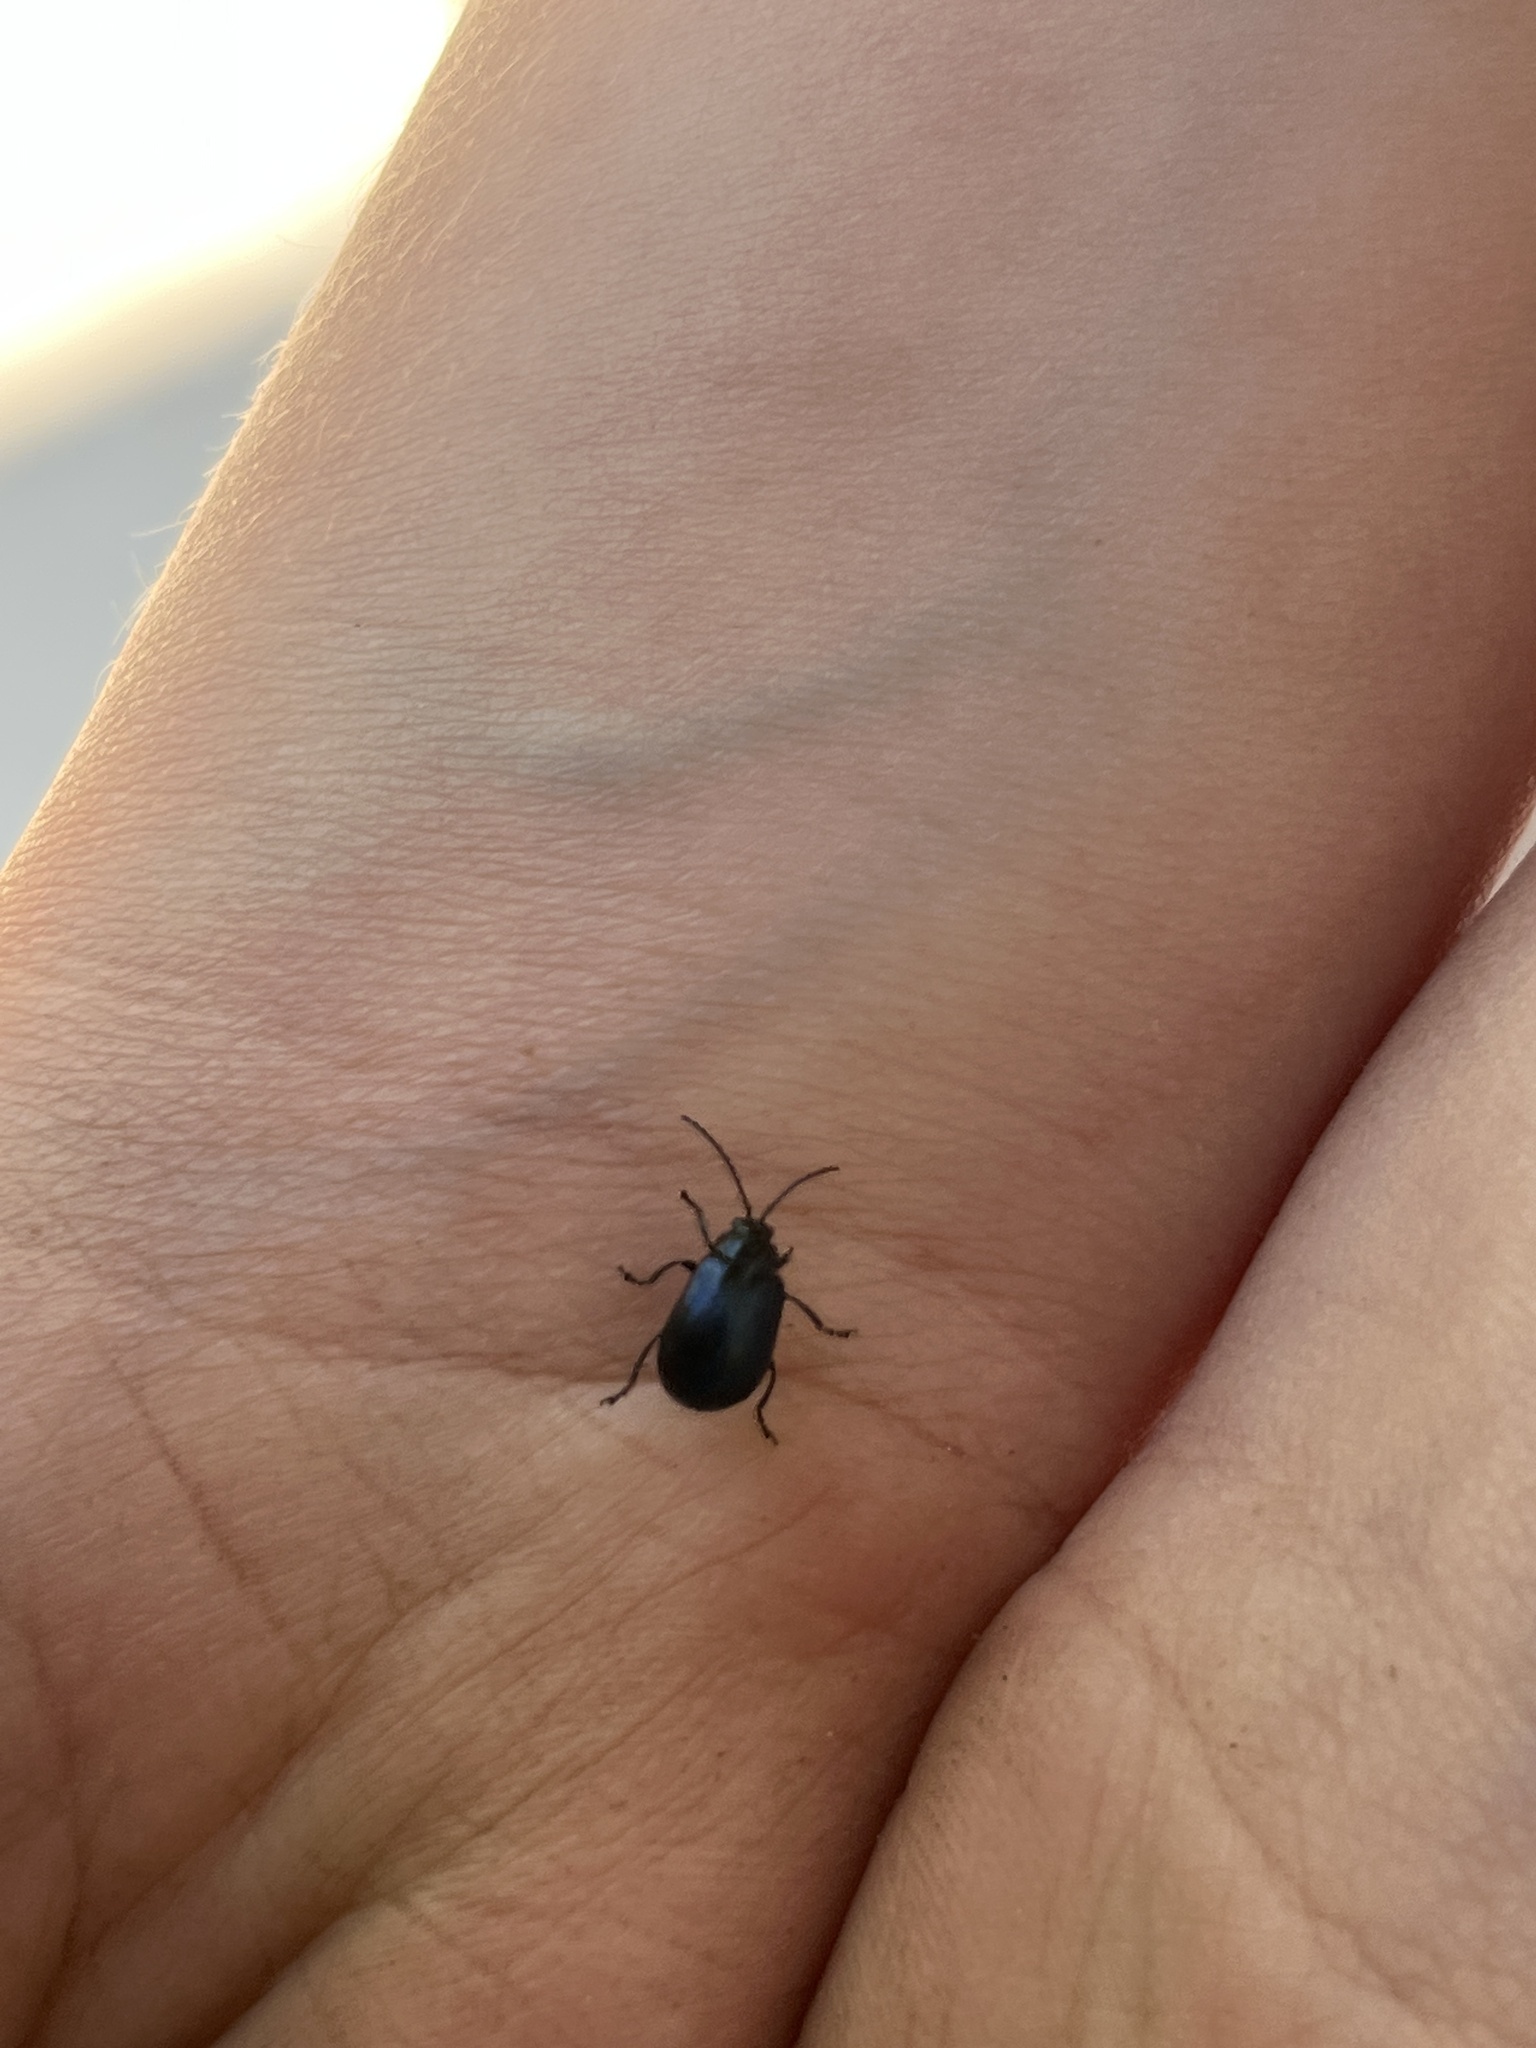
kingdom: Animalia
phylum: Arthropoda
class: Insecta
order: Coleoptera
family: Chrysomelidae
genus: Agelastica
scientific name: Agelastica alni
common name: Alder leaf beetle
